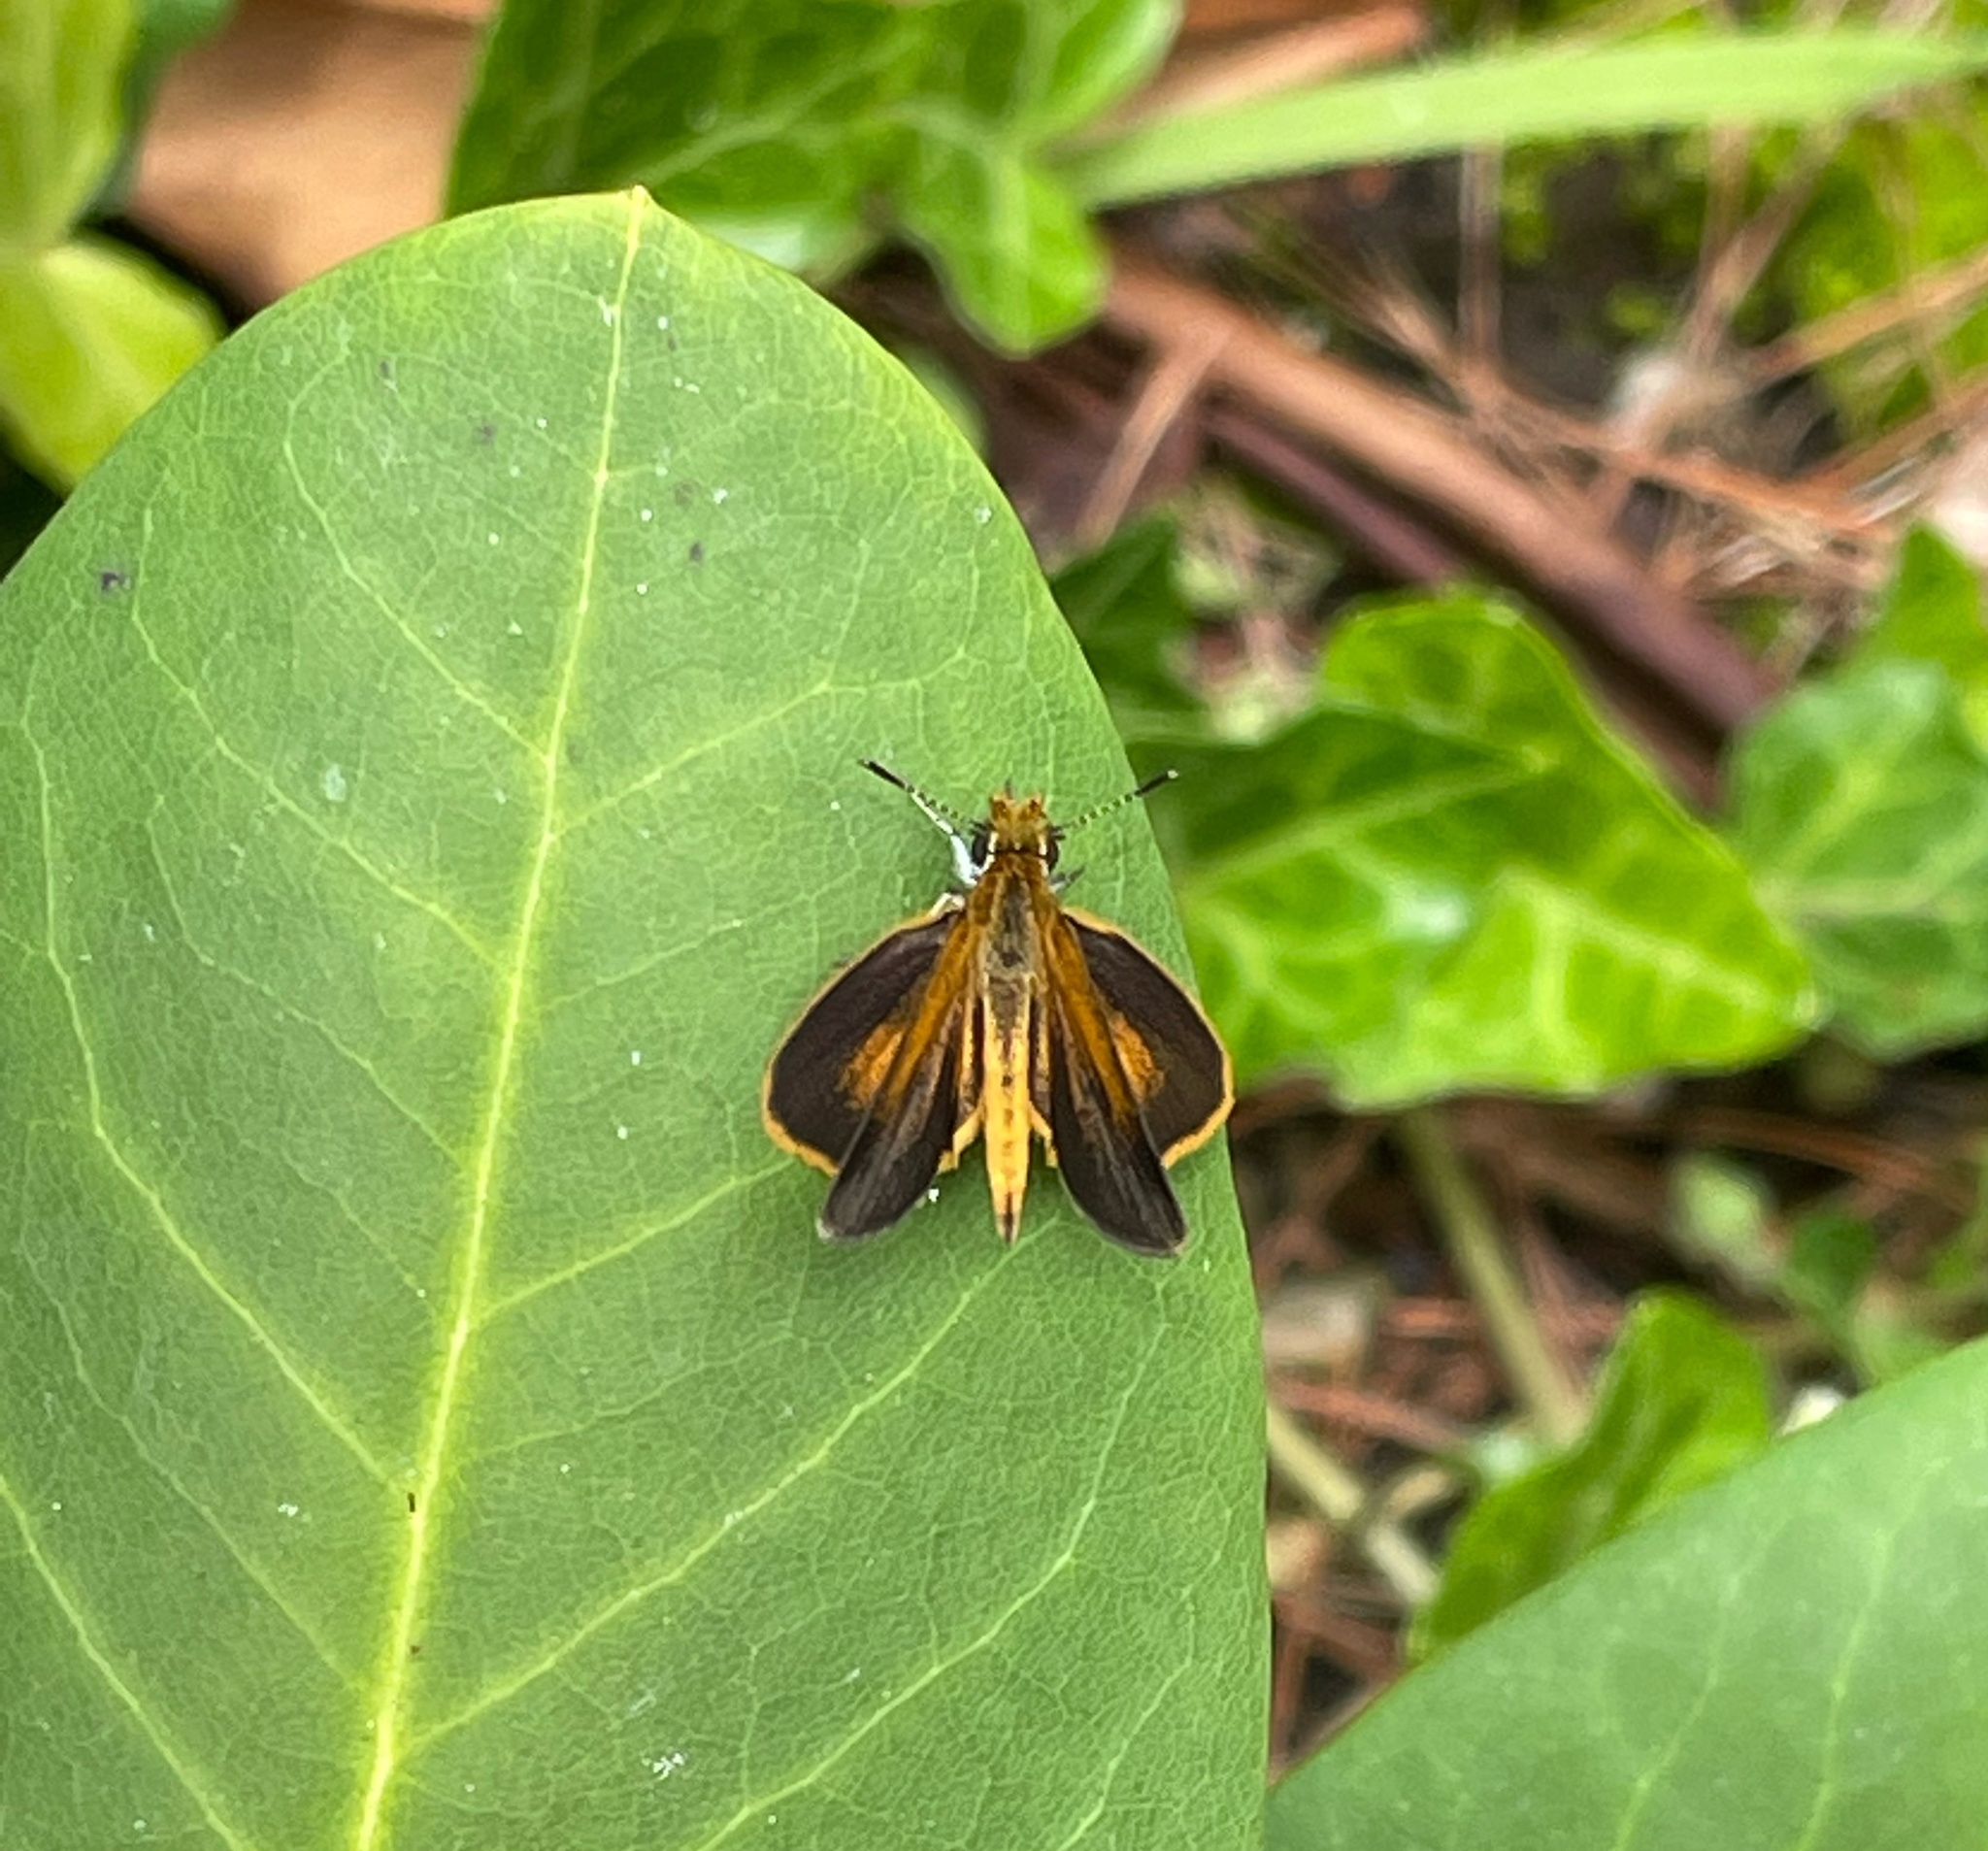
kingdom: Animalia
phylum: Arthropoda
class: Insecta
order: Lepidoptera
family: Hesperiidae
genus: Ancyloxypha
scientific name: Ancyloxypha numitor
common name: Least skipper
